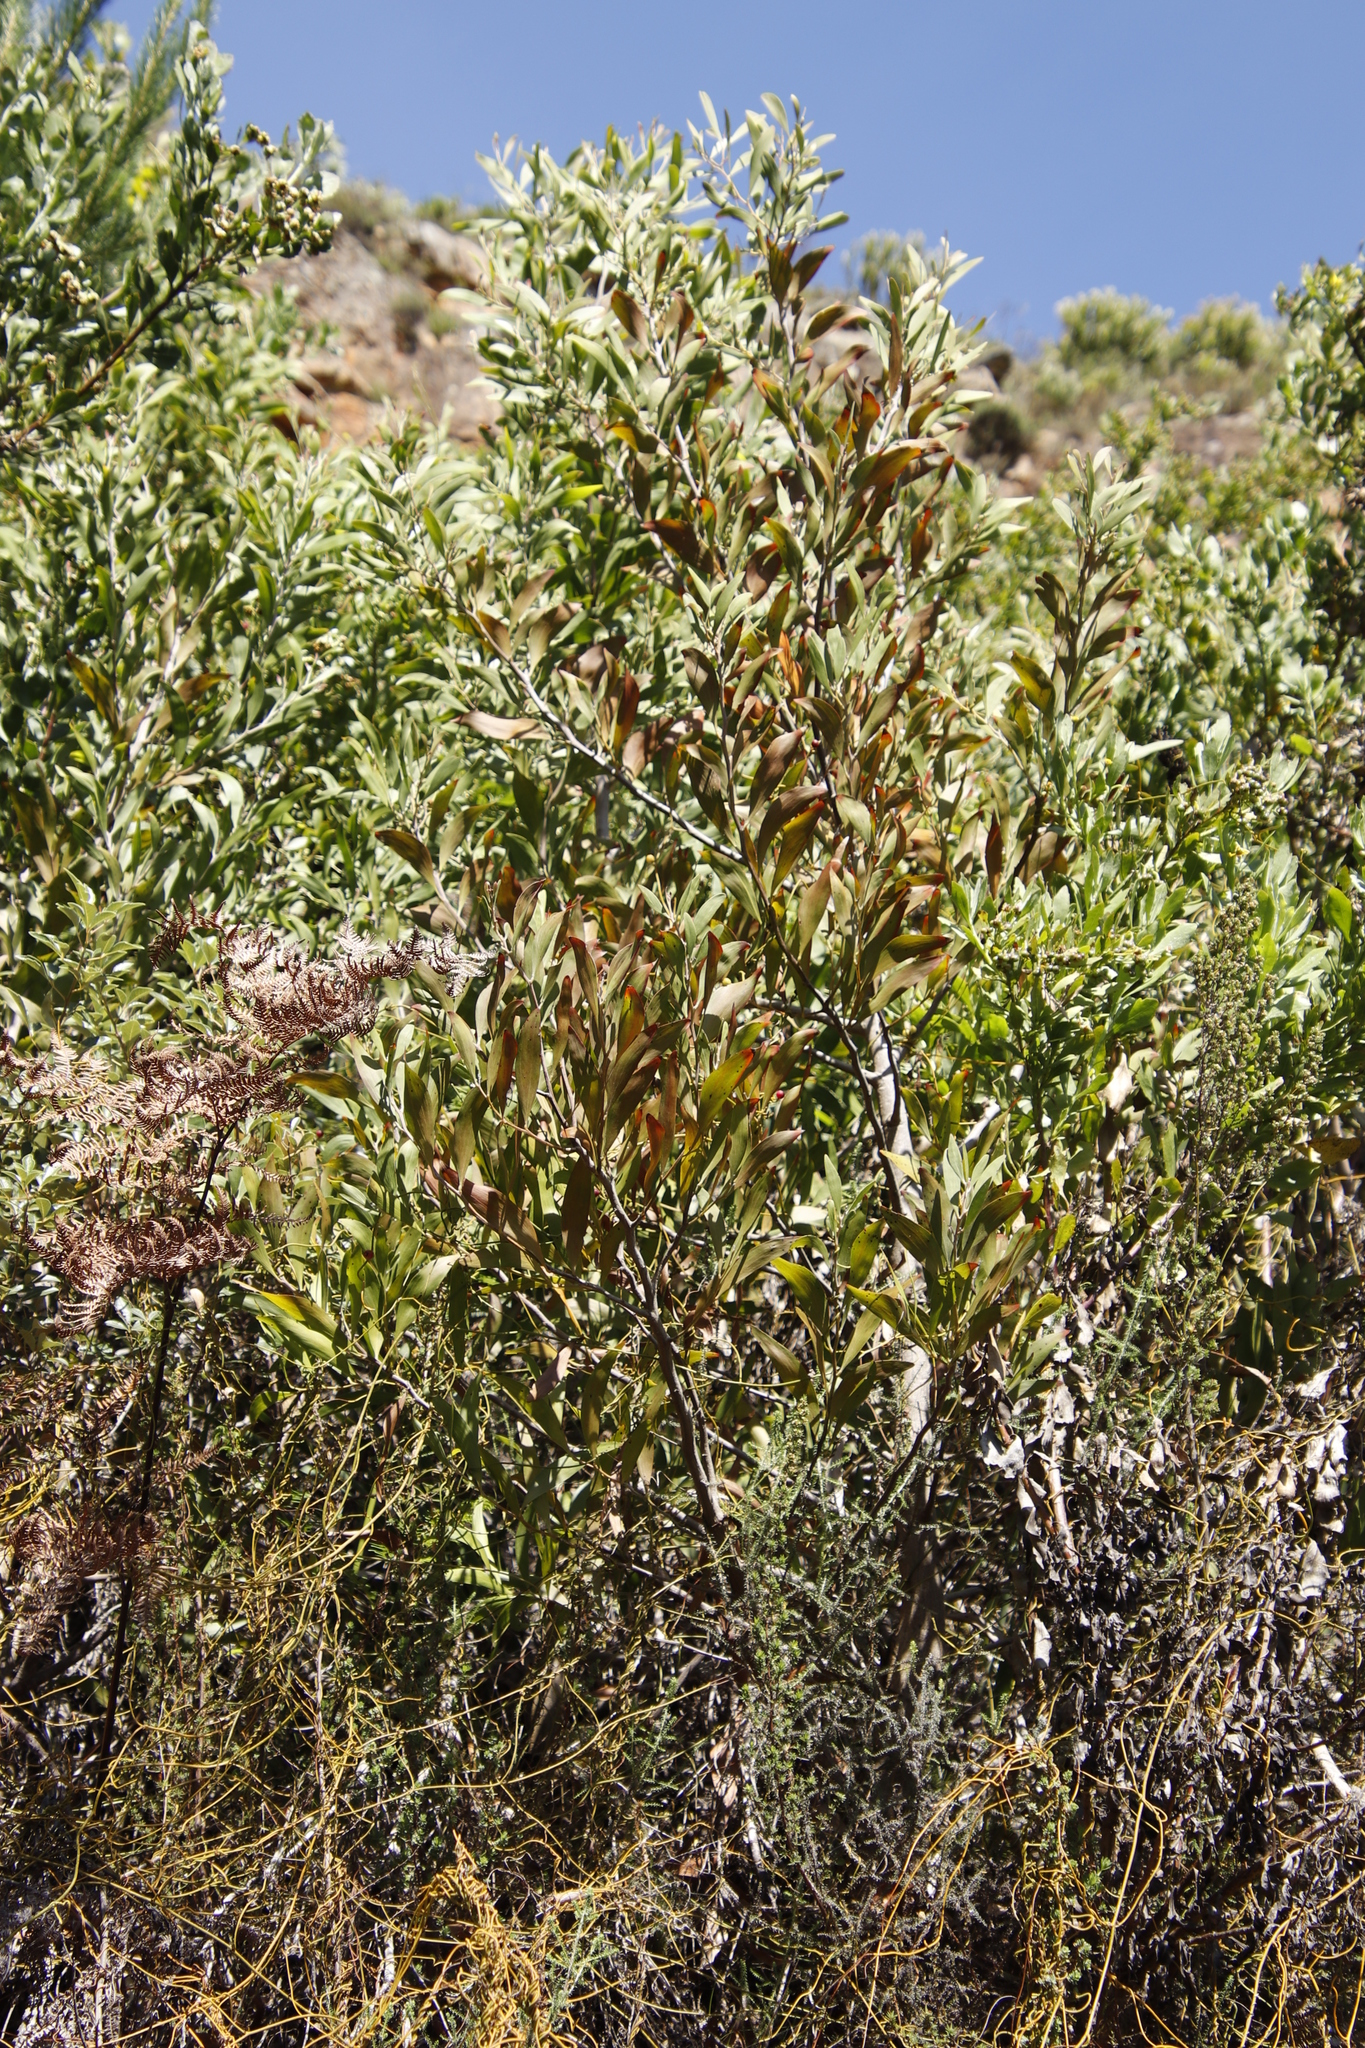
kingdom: Plantae
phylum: Tracheophyta
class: Magnoliopsida
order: Sapindales
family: Anacardiaceae
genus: Searsia
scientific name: Searsia tomentosa
